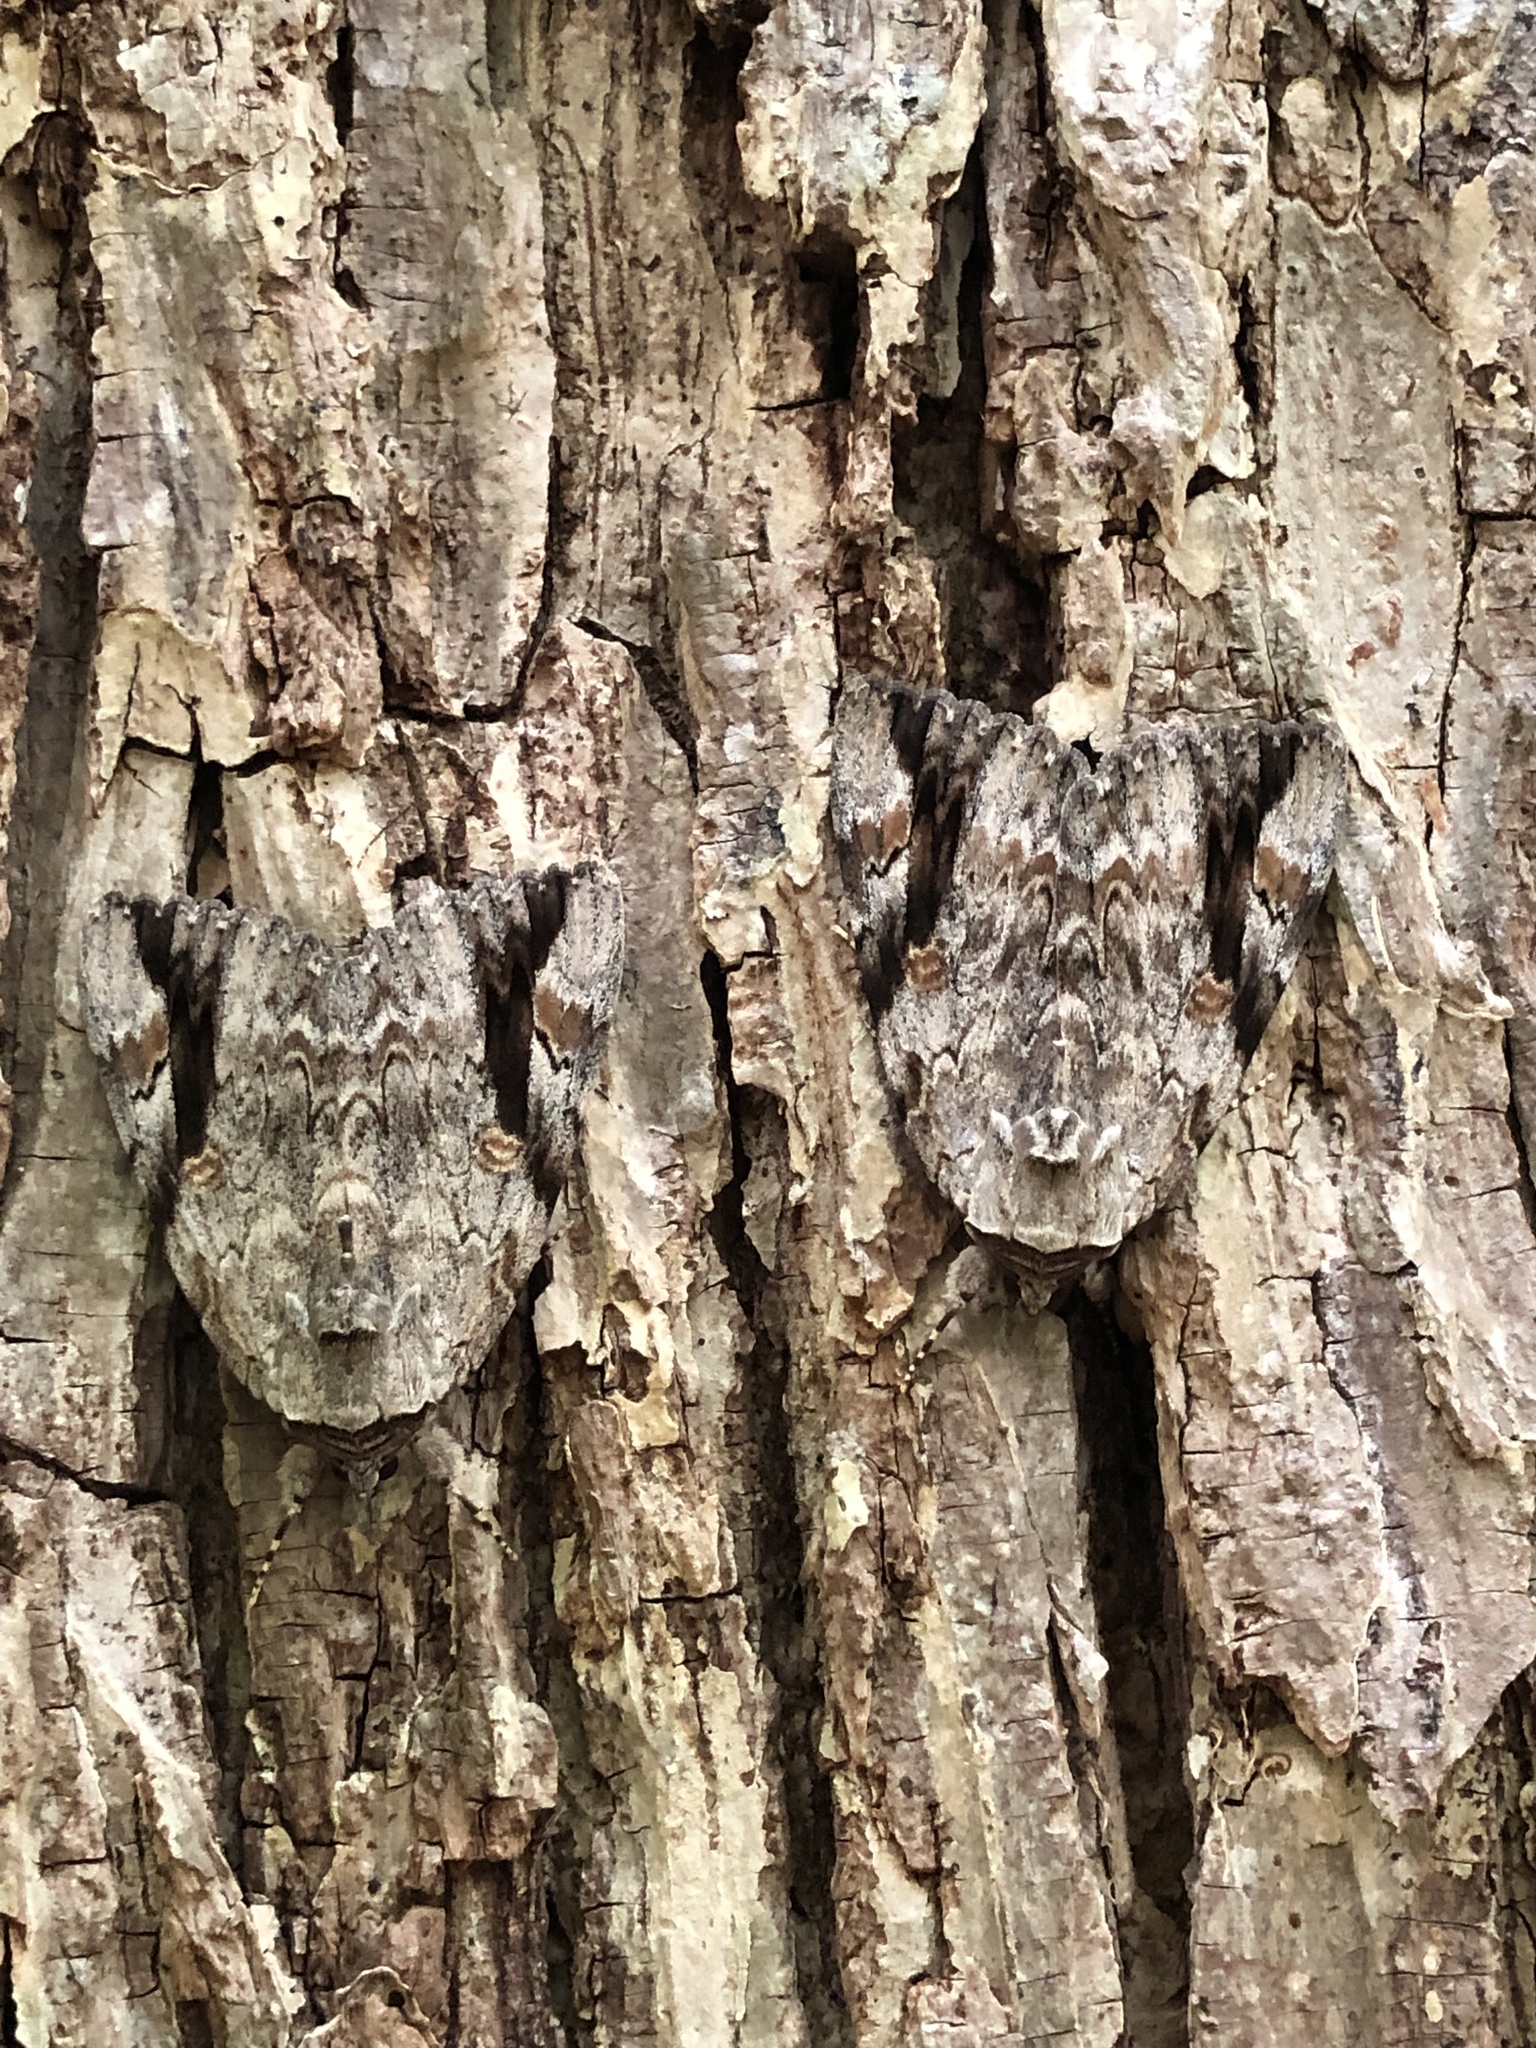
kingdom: Animalia
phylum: Arthropoda
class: Insecta
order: Lepidoptera
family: Erebidae
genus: Catocala
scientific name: Catocala maestosa
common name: Sad underwing
